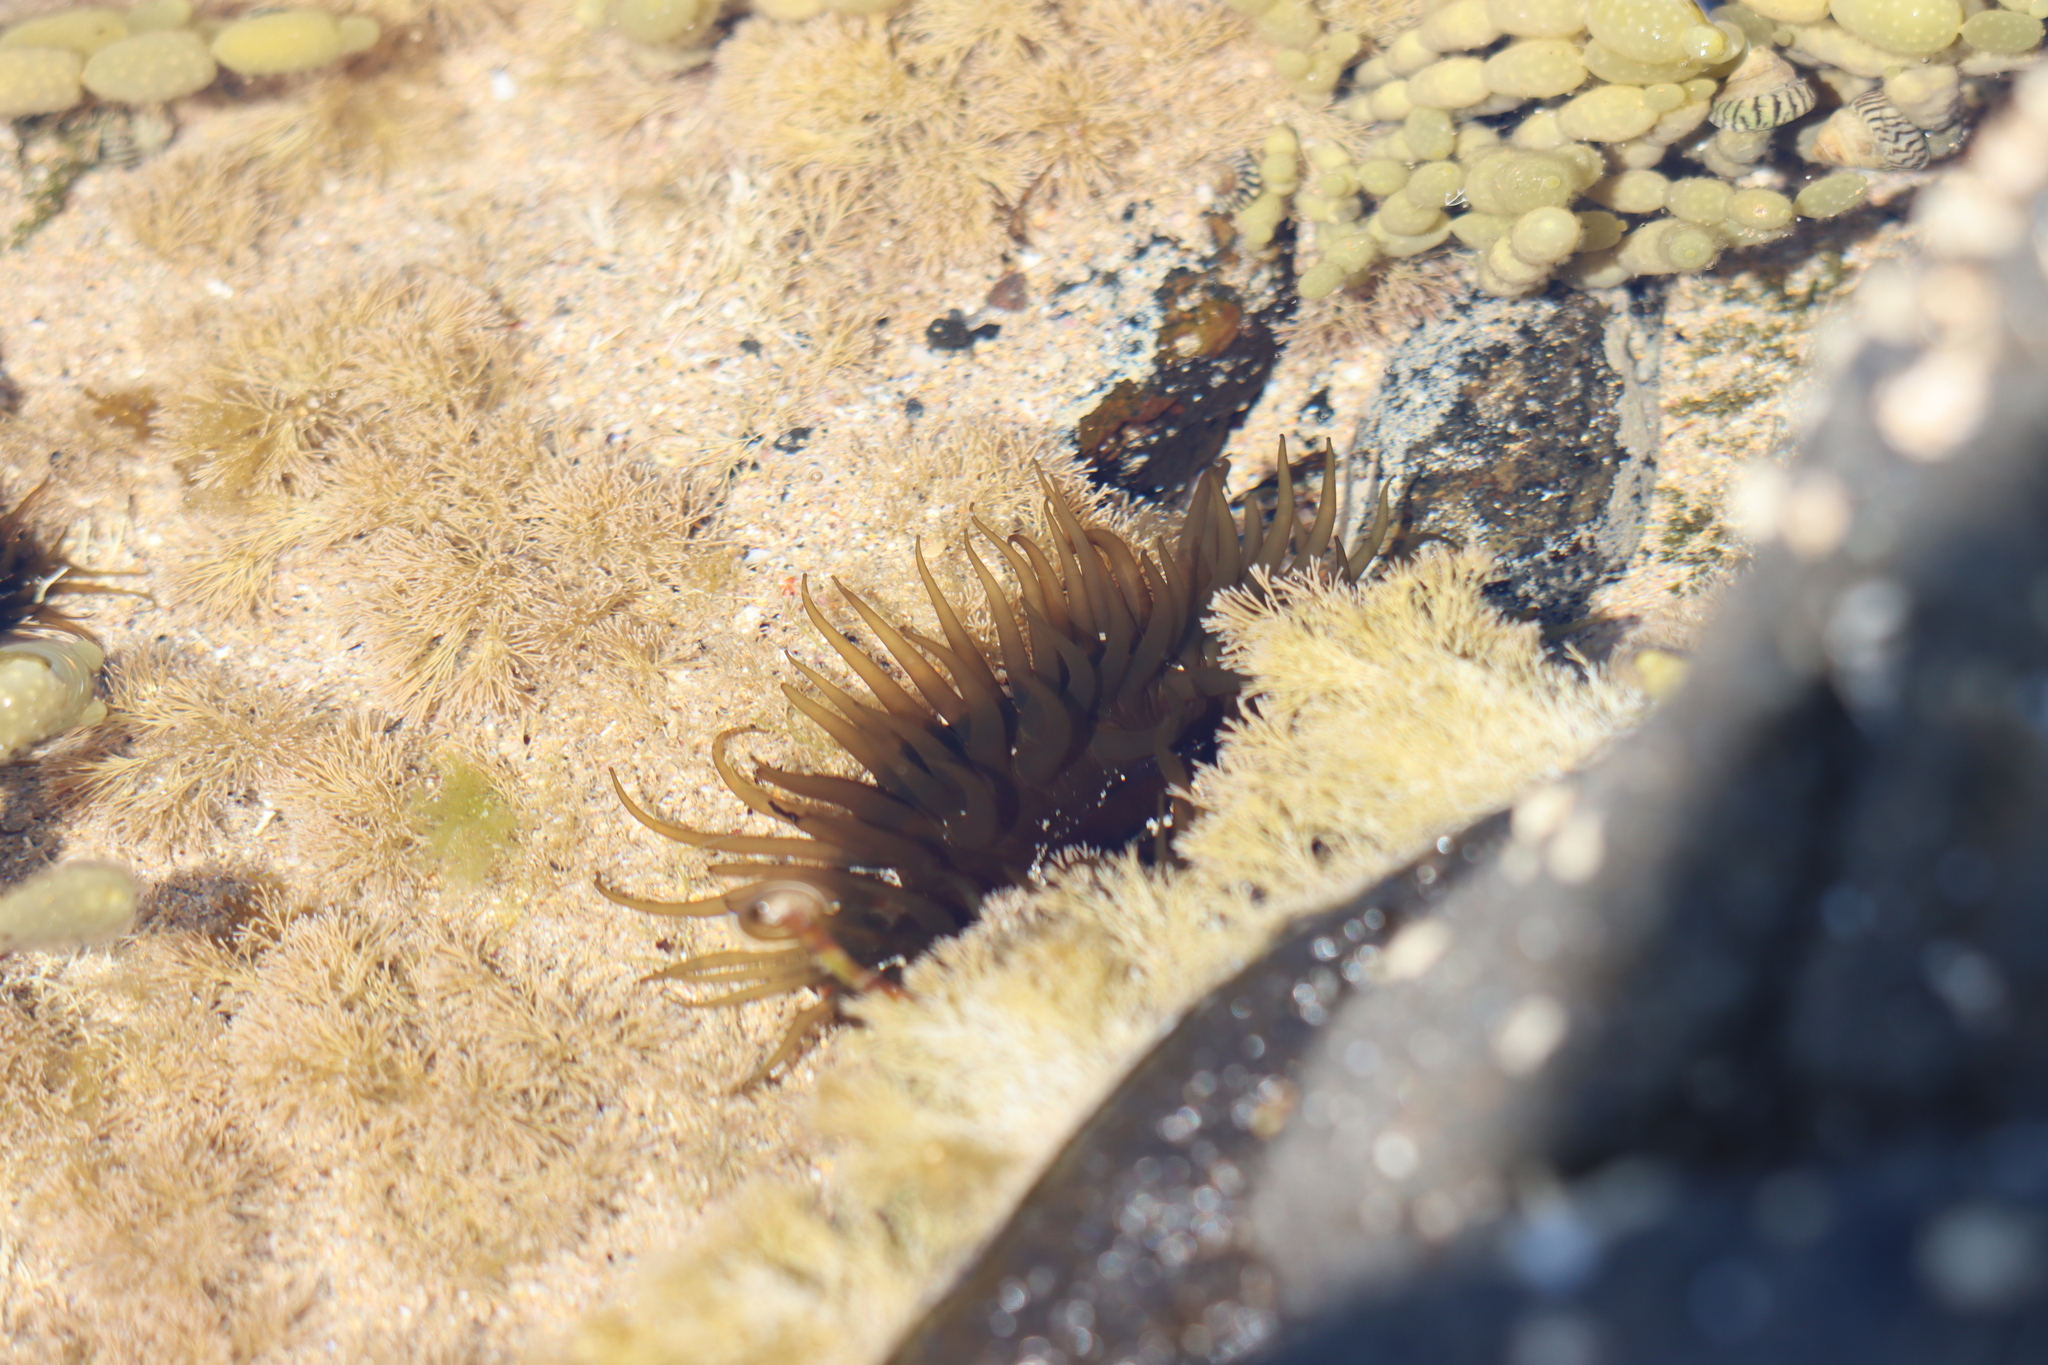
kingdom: Animalia
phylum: Cnidaria
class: Anthozoa
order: Actiniaria
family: Actiniidae
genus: Aulactinia
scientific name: Aulactinia veratra
